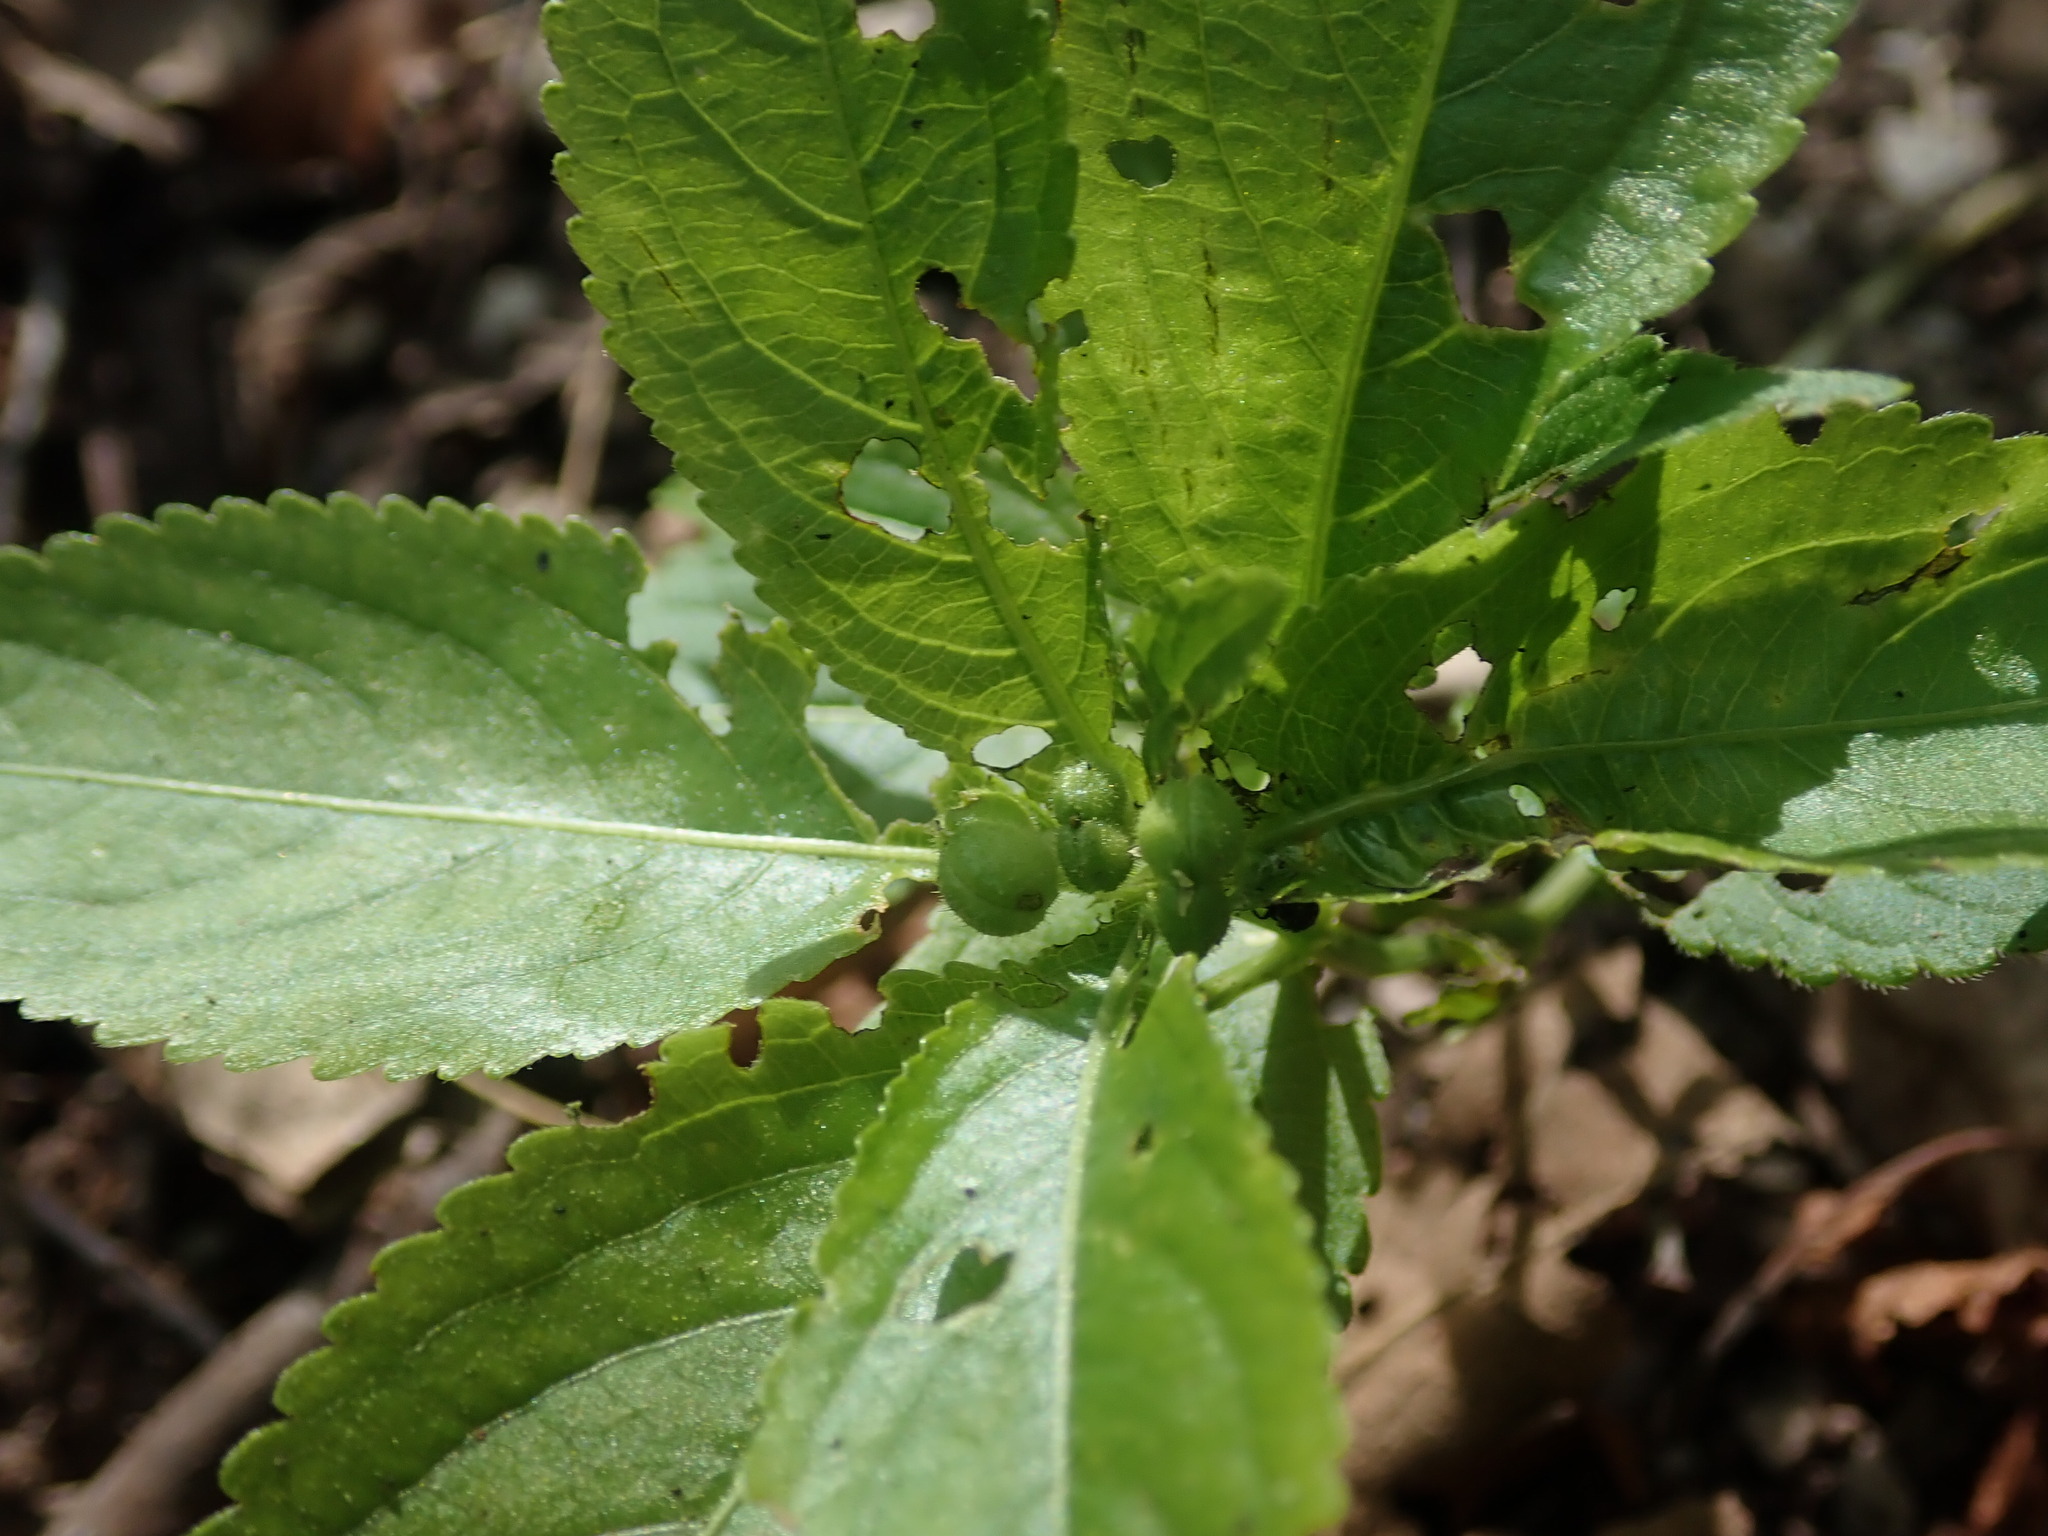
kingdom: Plantae
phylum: Tracheophyta
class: Magnoliopsida
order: Malpighiales
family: Euphorbiaceae
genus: Mercurialis
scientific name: Mercurialis perennis
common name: Dog mercury
